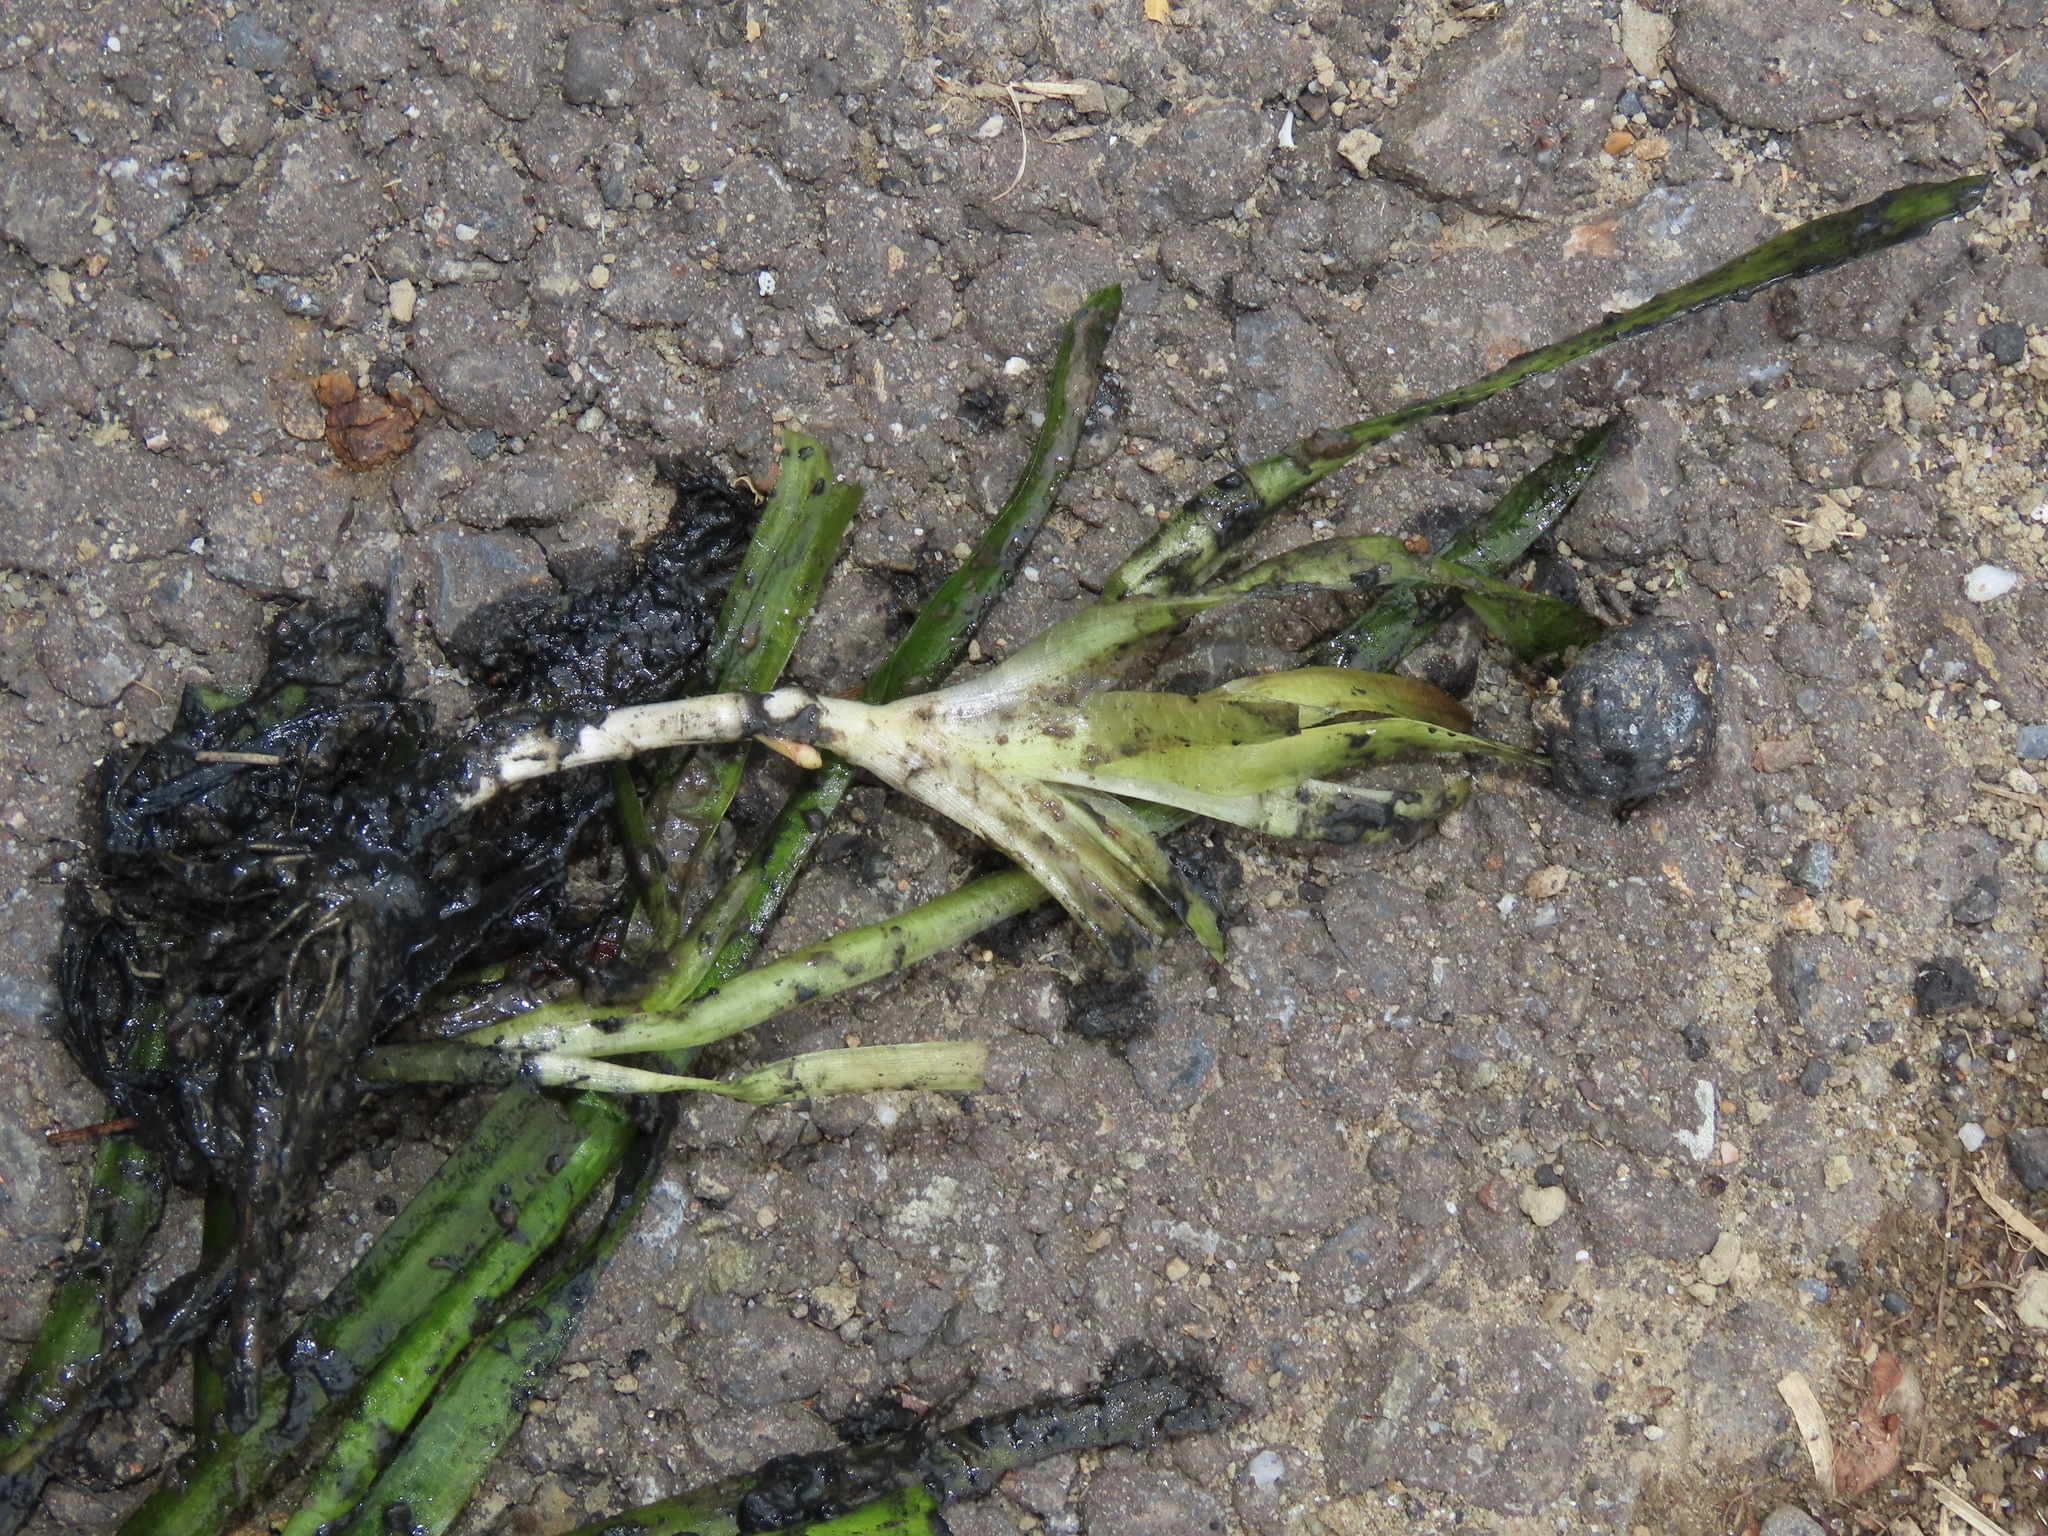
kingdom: Plantae
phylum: Tracheophyta
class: Liliopsida
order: Alismatales
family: Hydrocharitaceae
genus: Vallisneria
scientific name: Vallisneria
